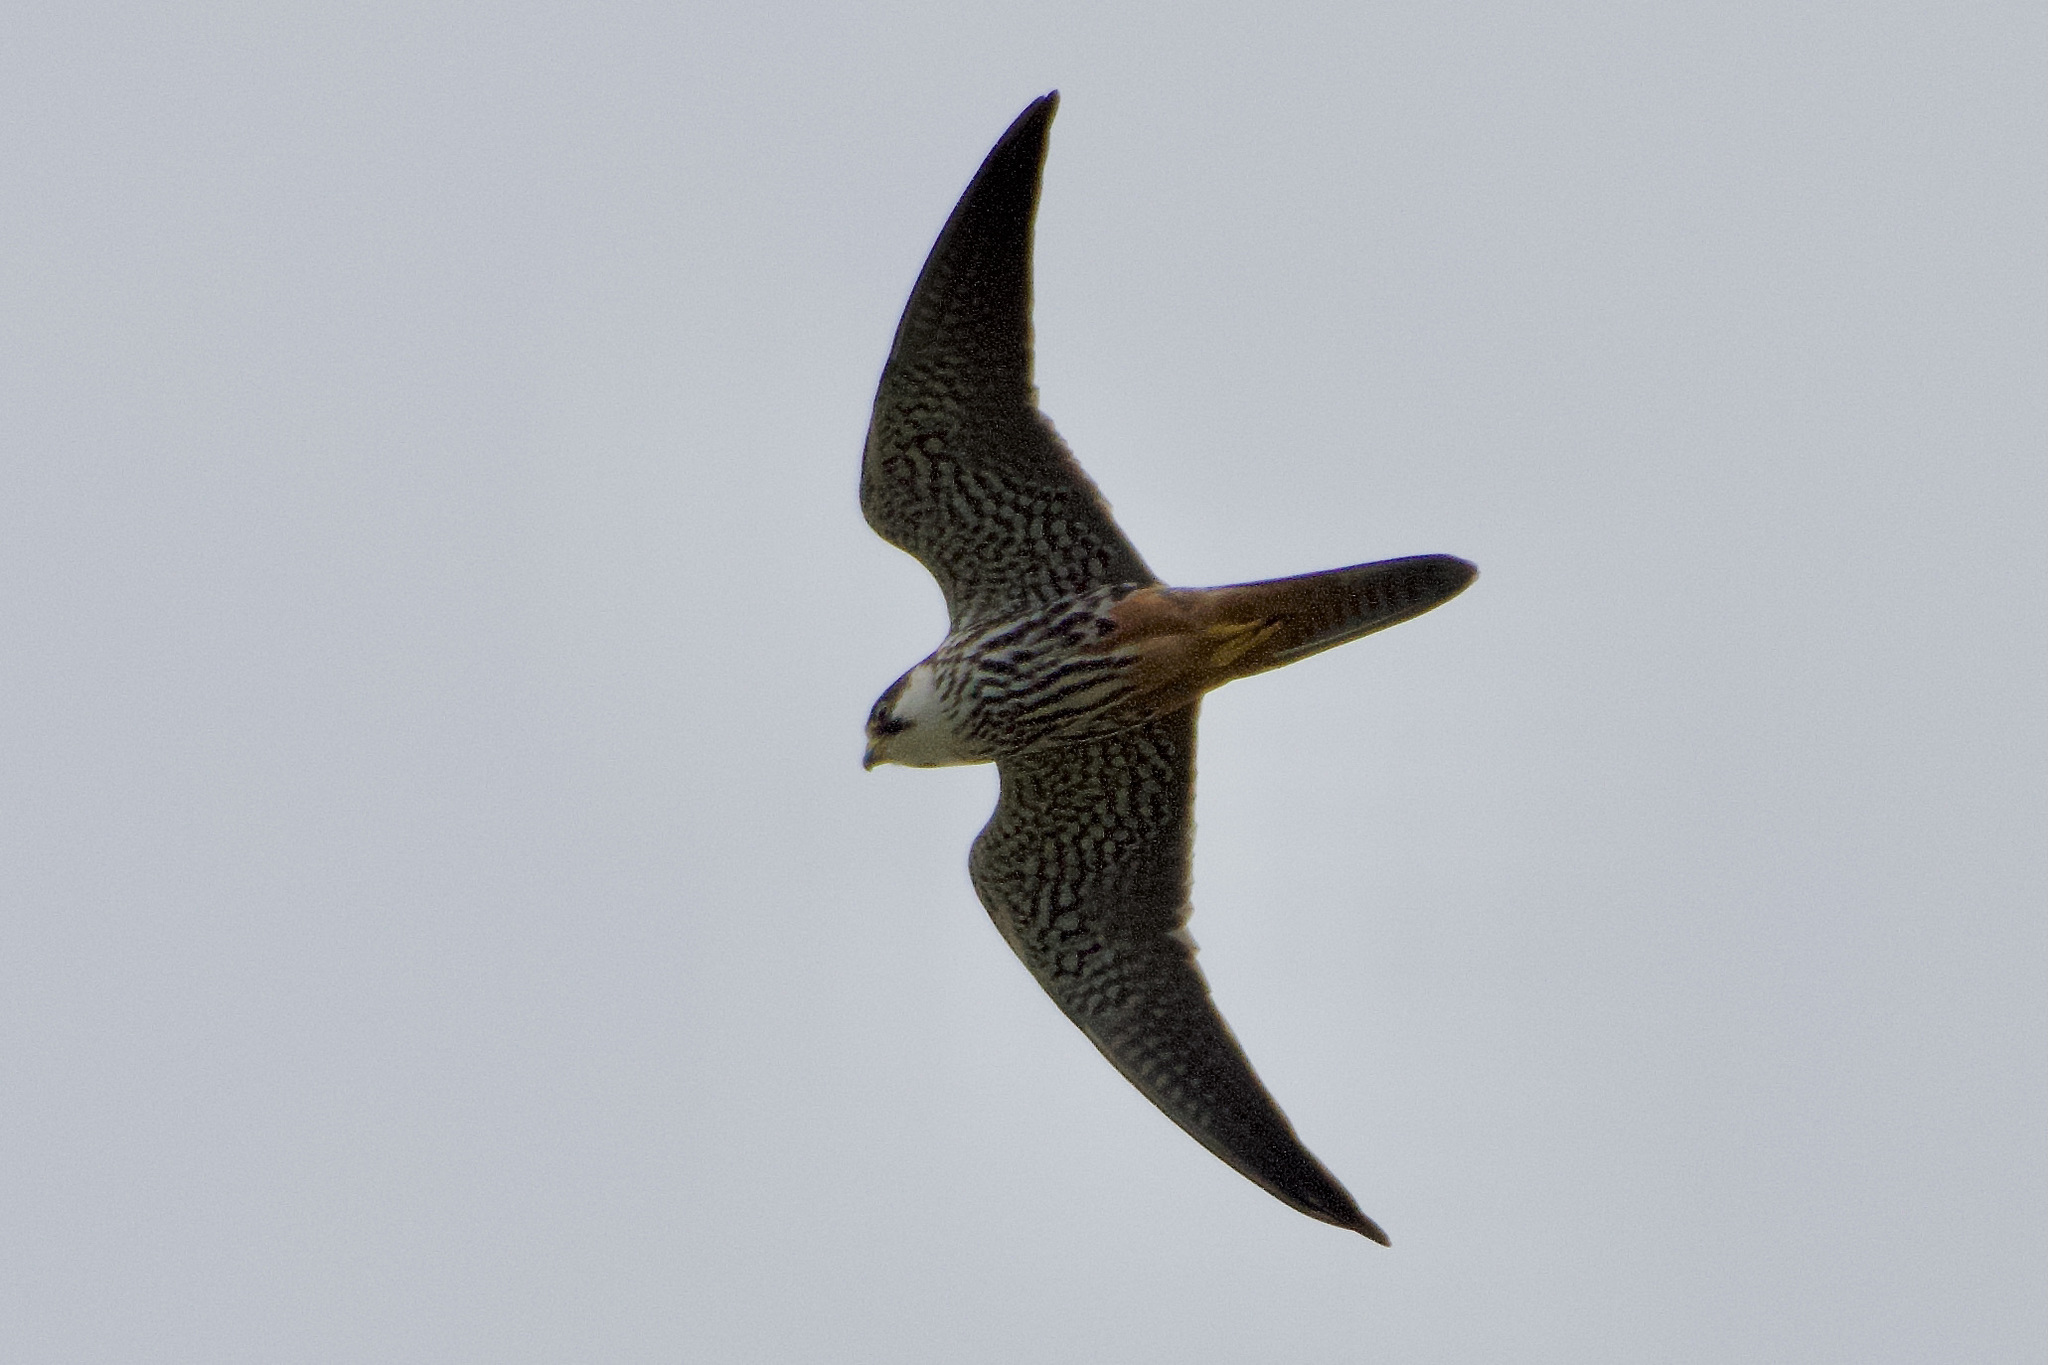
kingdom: Animalia
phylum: Chordata
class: Aves
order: Falconiformes
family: Falconidae
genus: Falco
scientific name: Falco subbuteo
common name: Eurasian hobby
